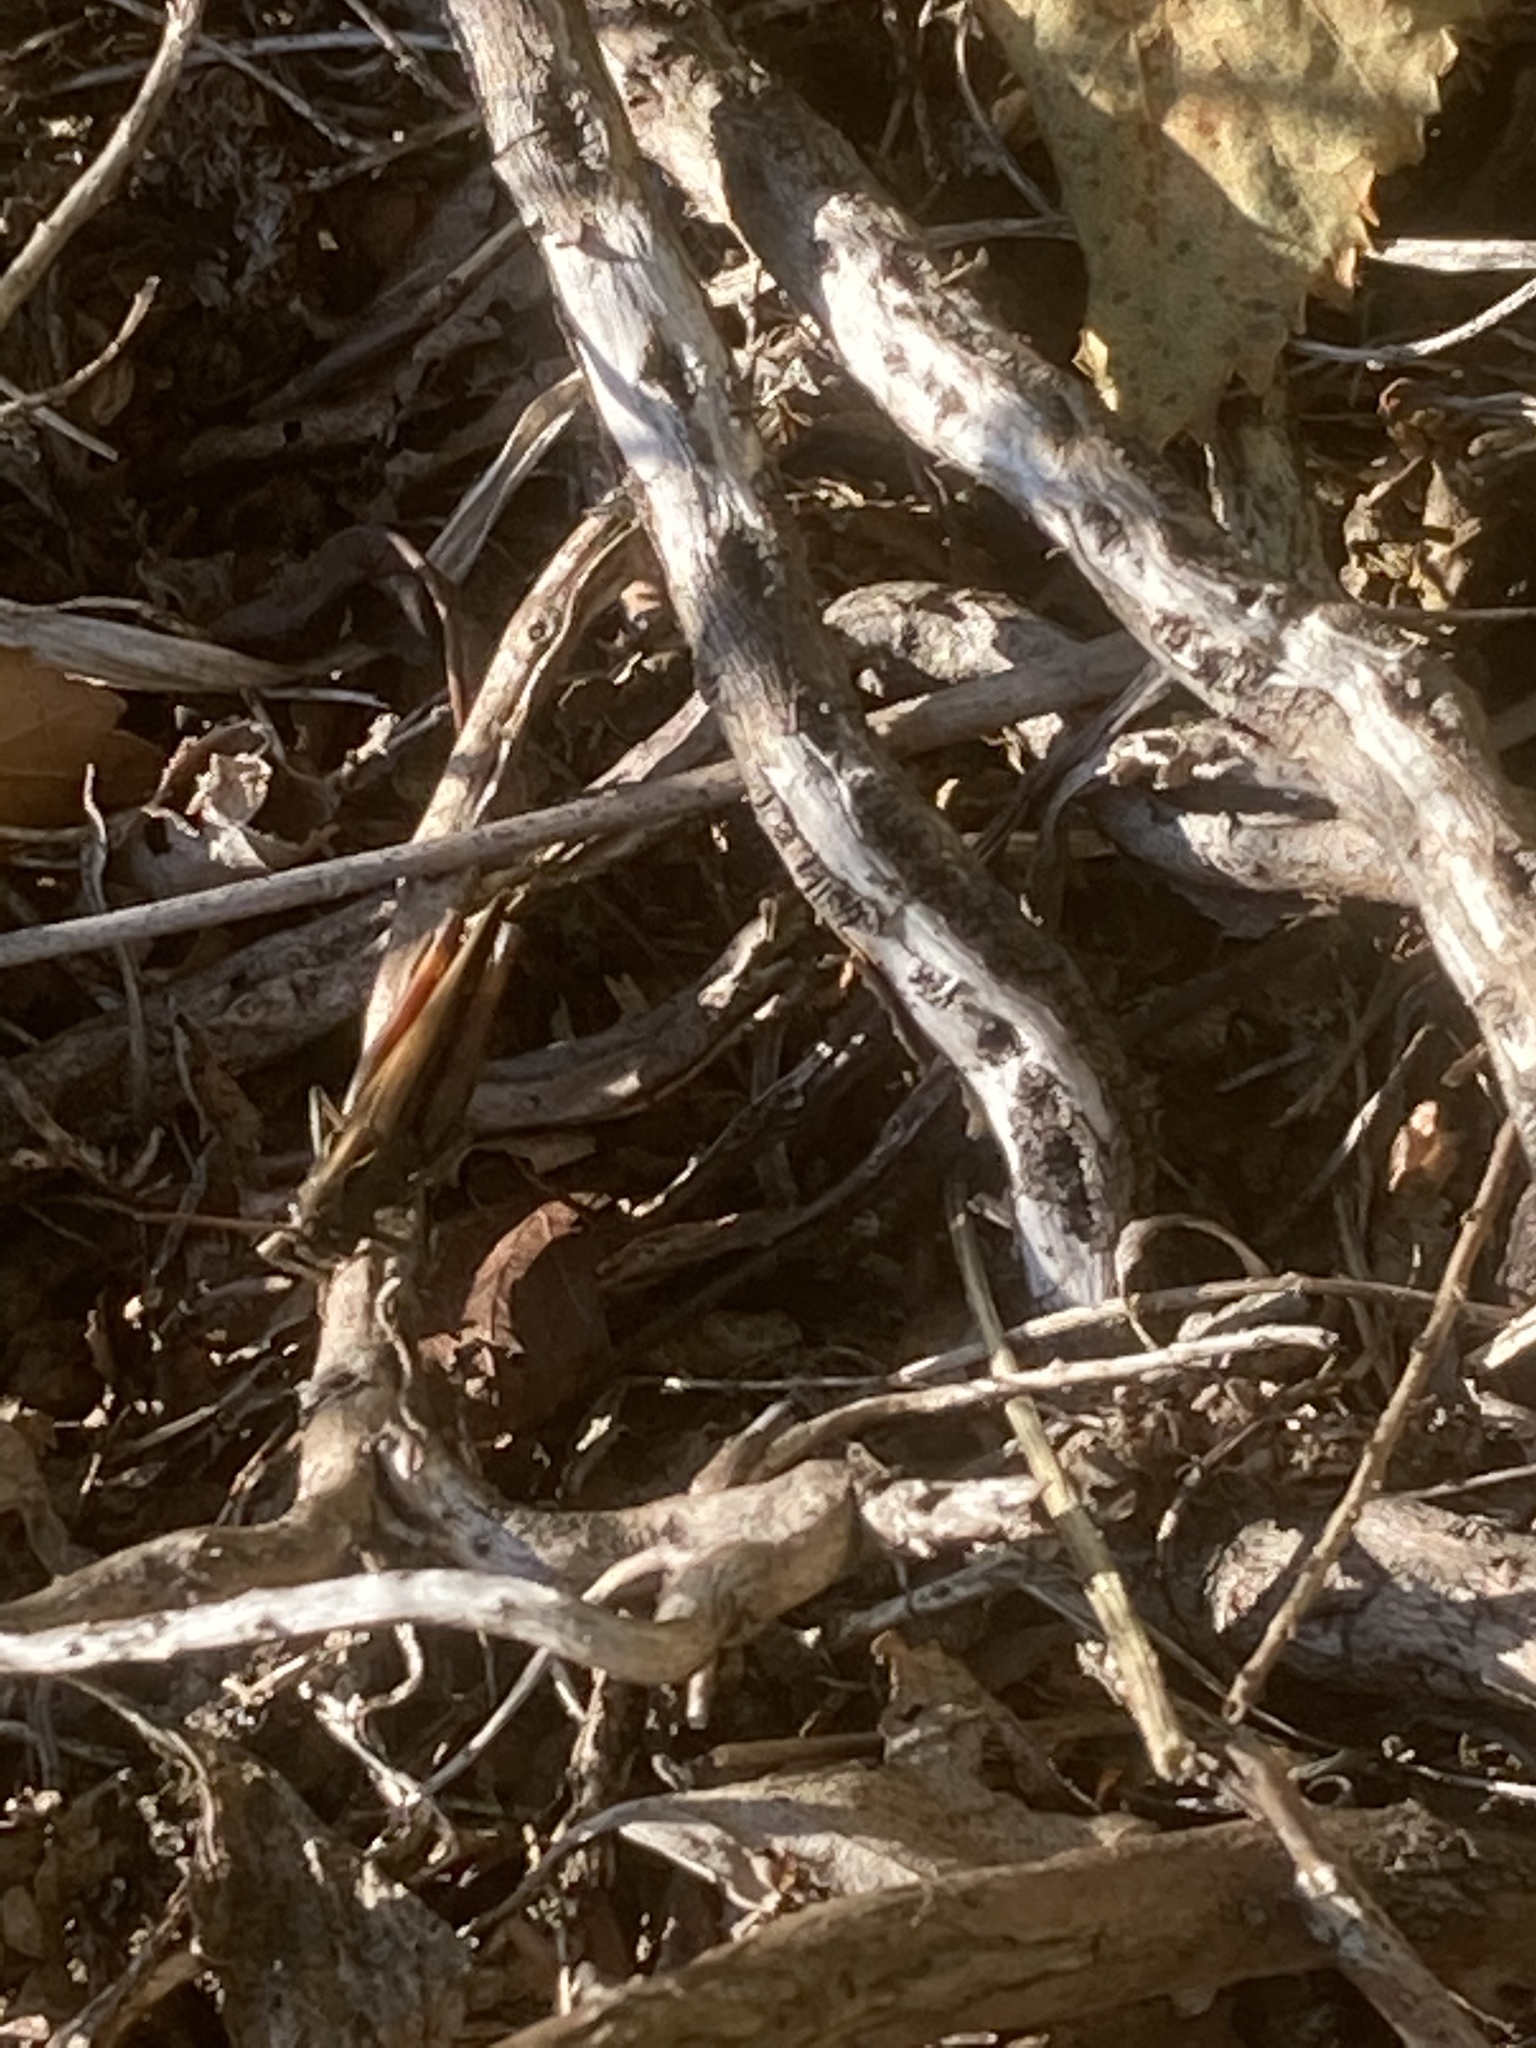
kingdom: Animalia
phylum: Arthropoda
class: Insecta
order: Orthoptera
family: Acrididae
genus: Omocestus
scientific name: Omocestus rufipes
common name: Woodland grasshopper
